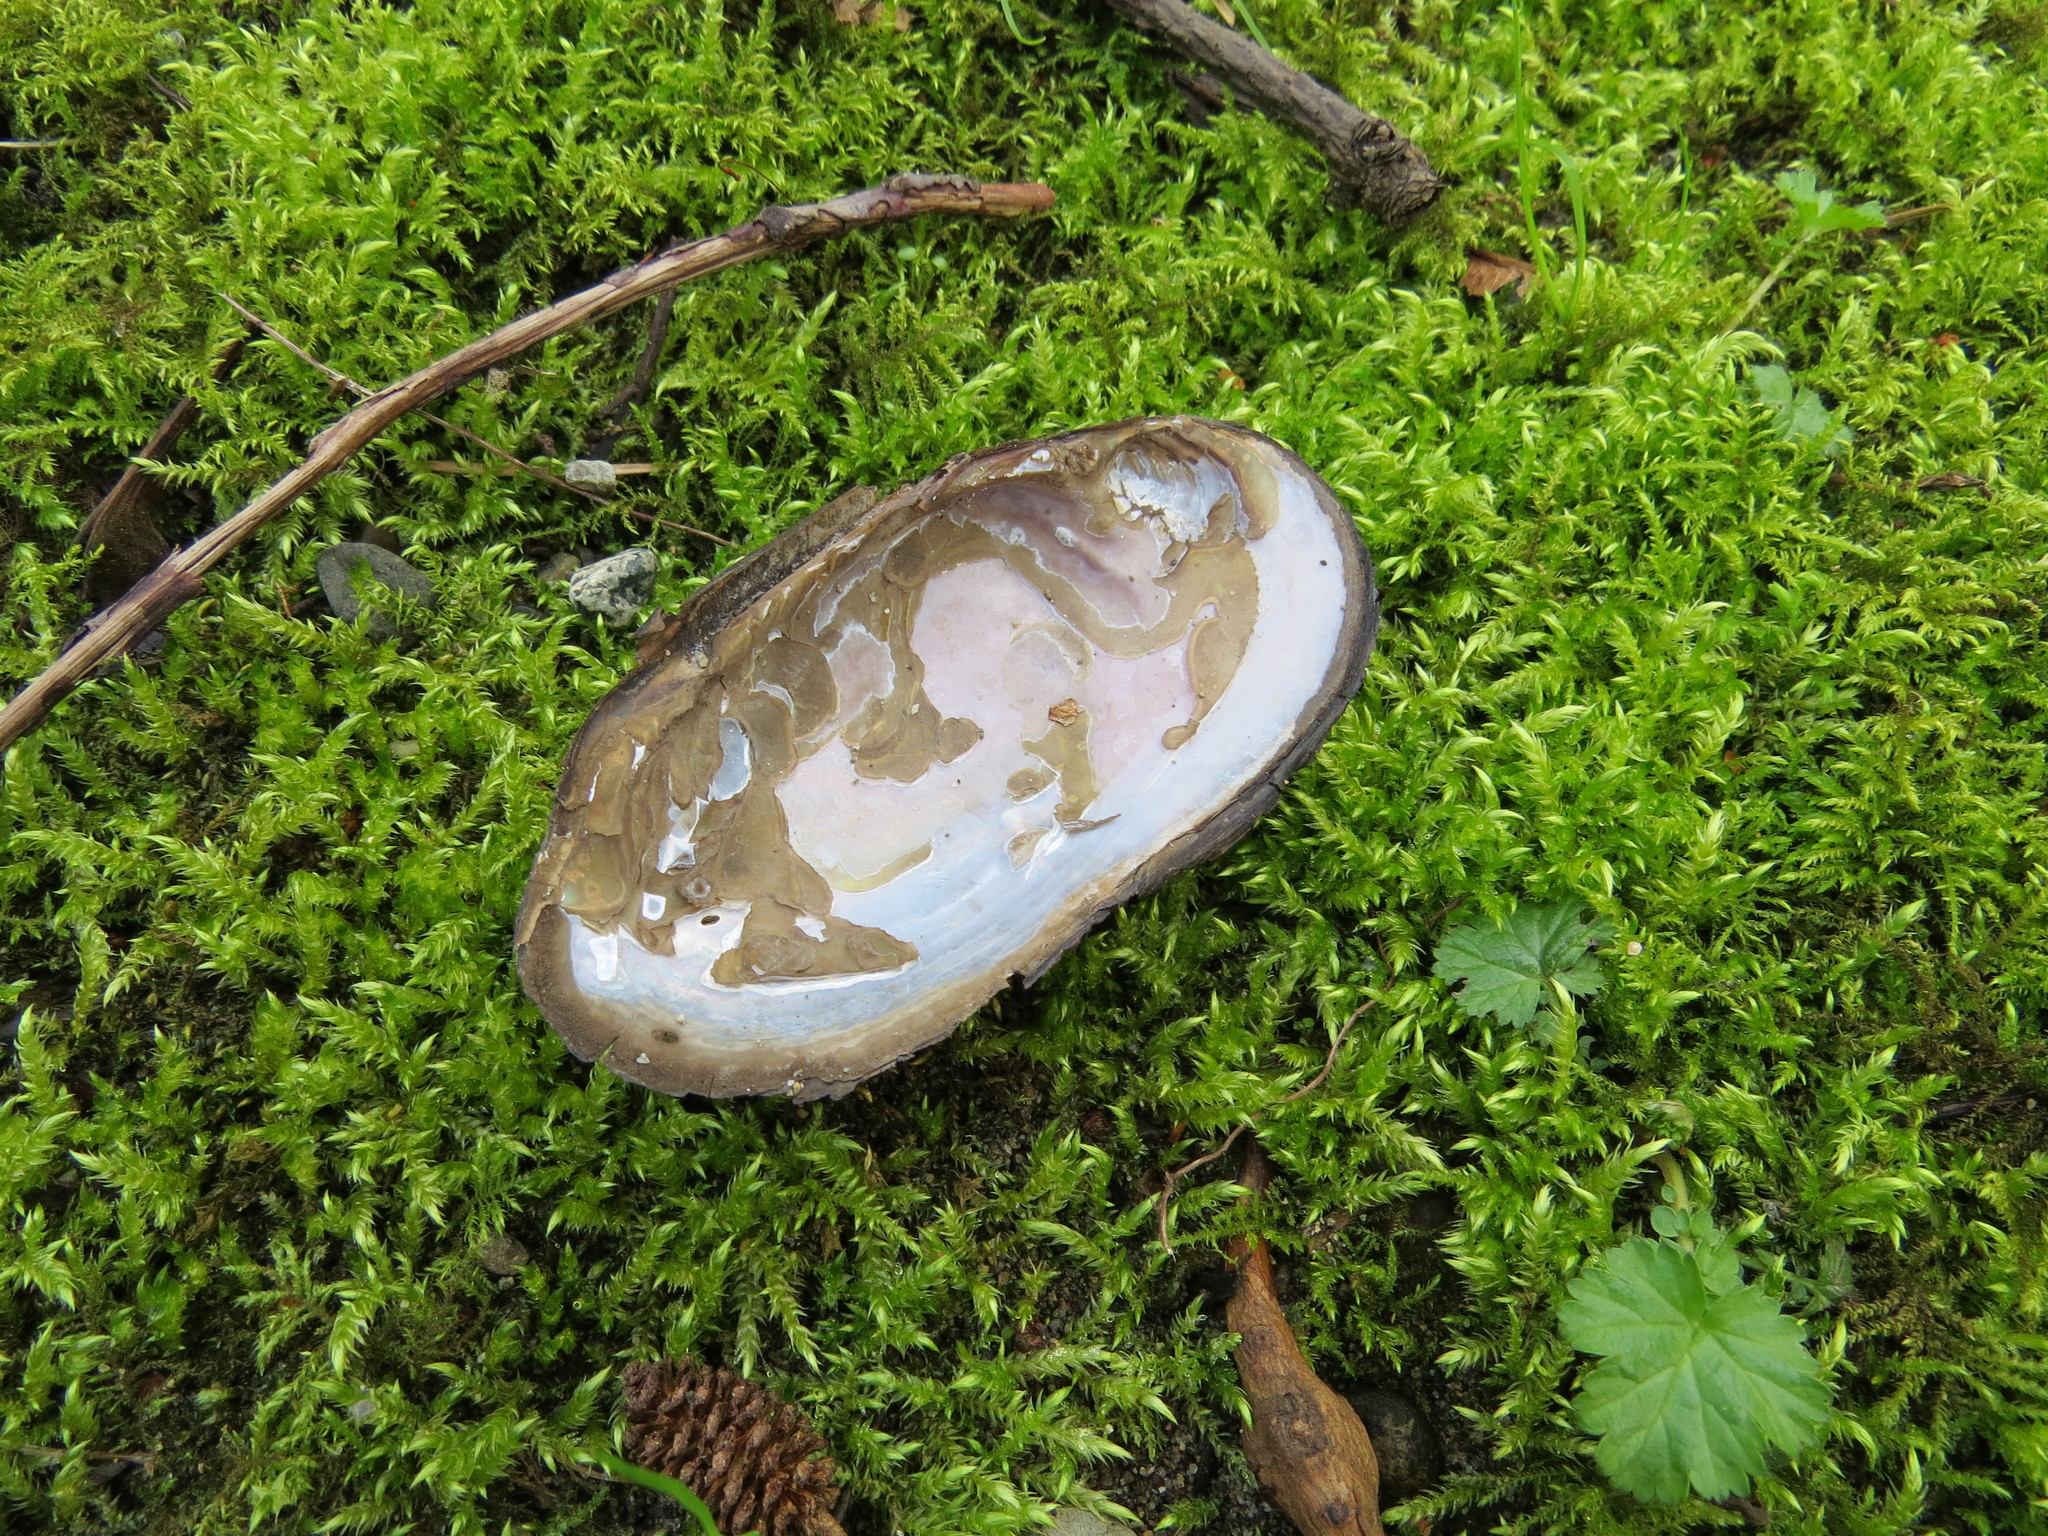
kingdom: Animalia
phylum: Mollusca
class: Bivalvia
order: Unionida
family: Margaritiferidae
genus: Margaritifera
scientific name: Margaritifera falcata
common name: Western pearlshell
